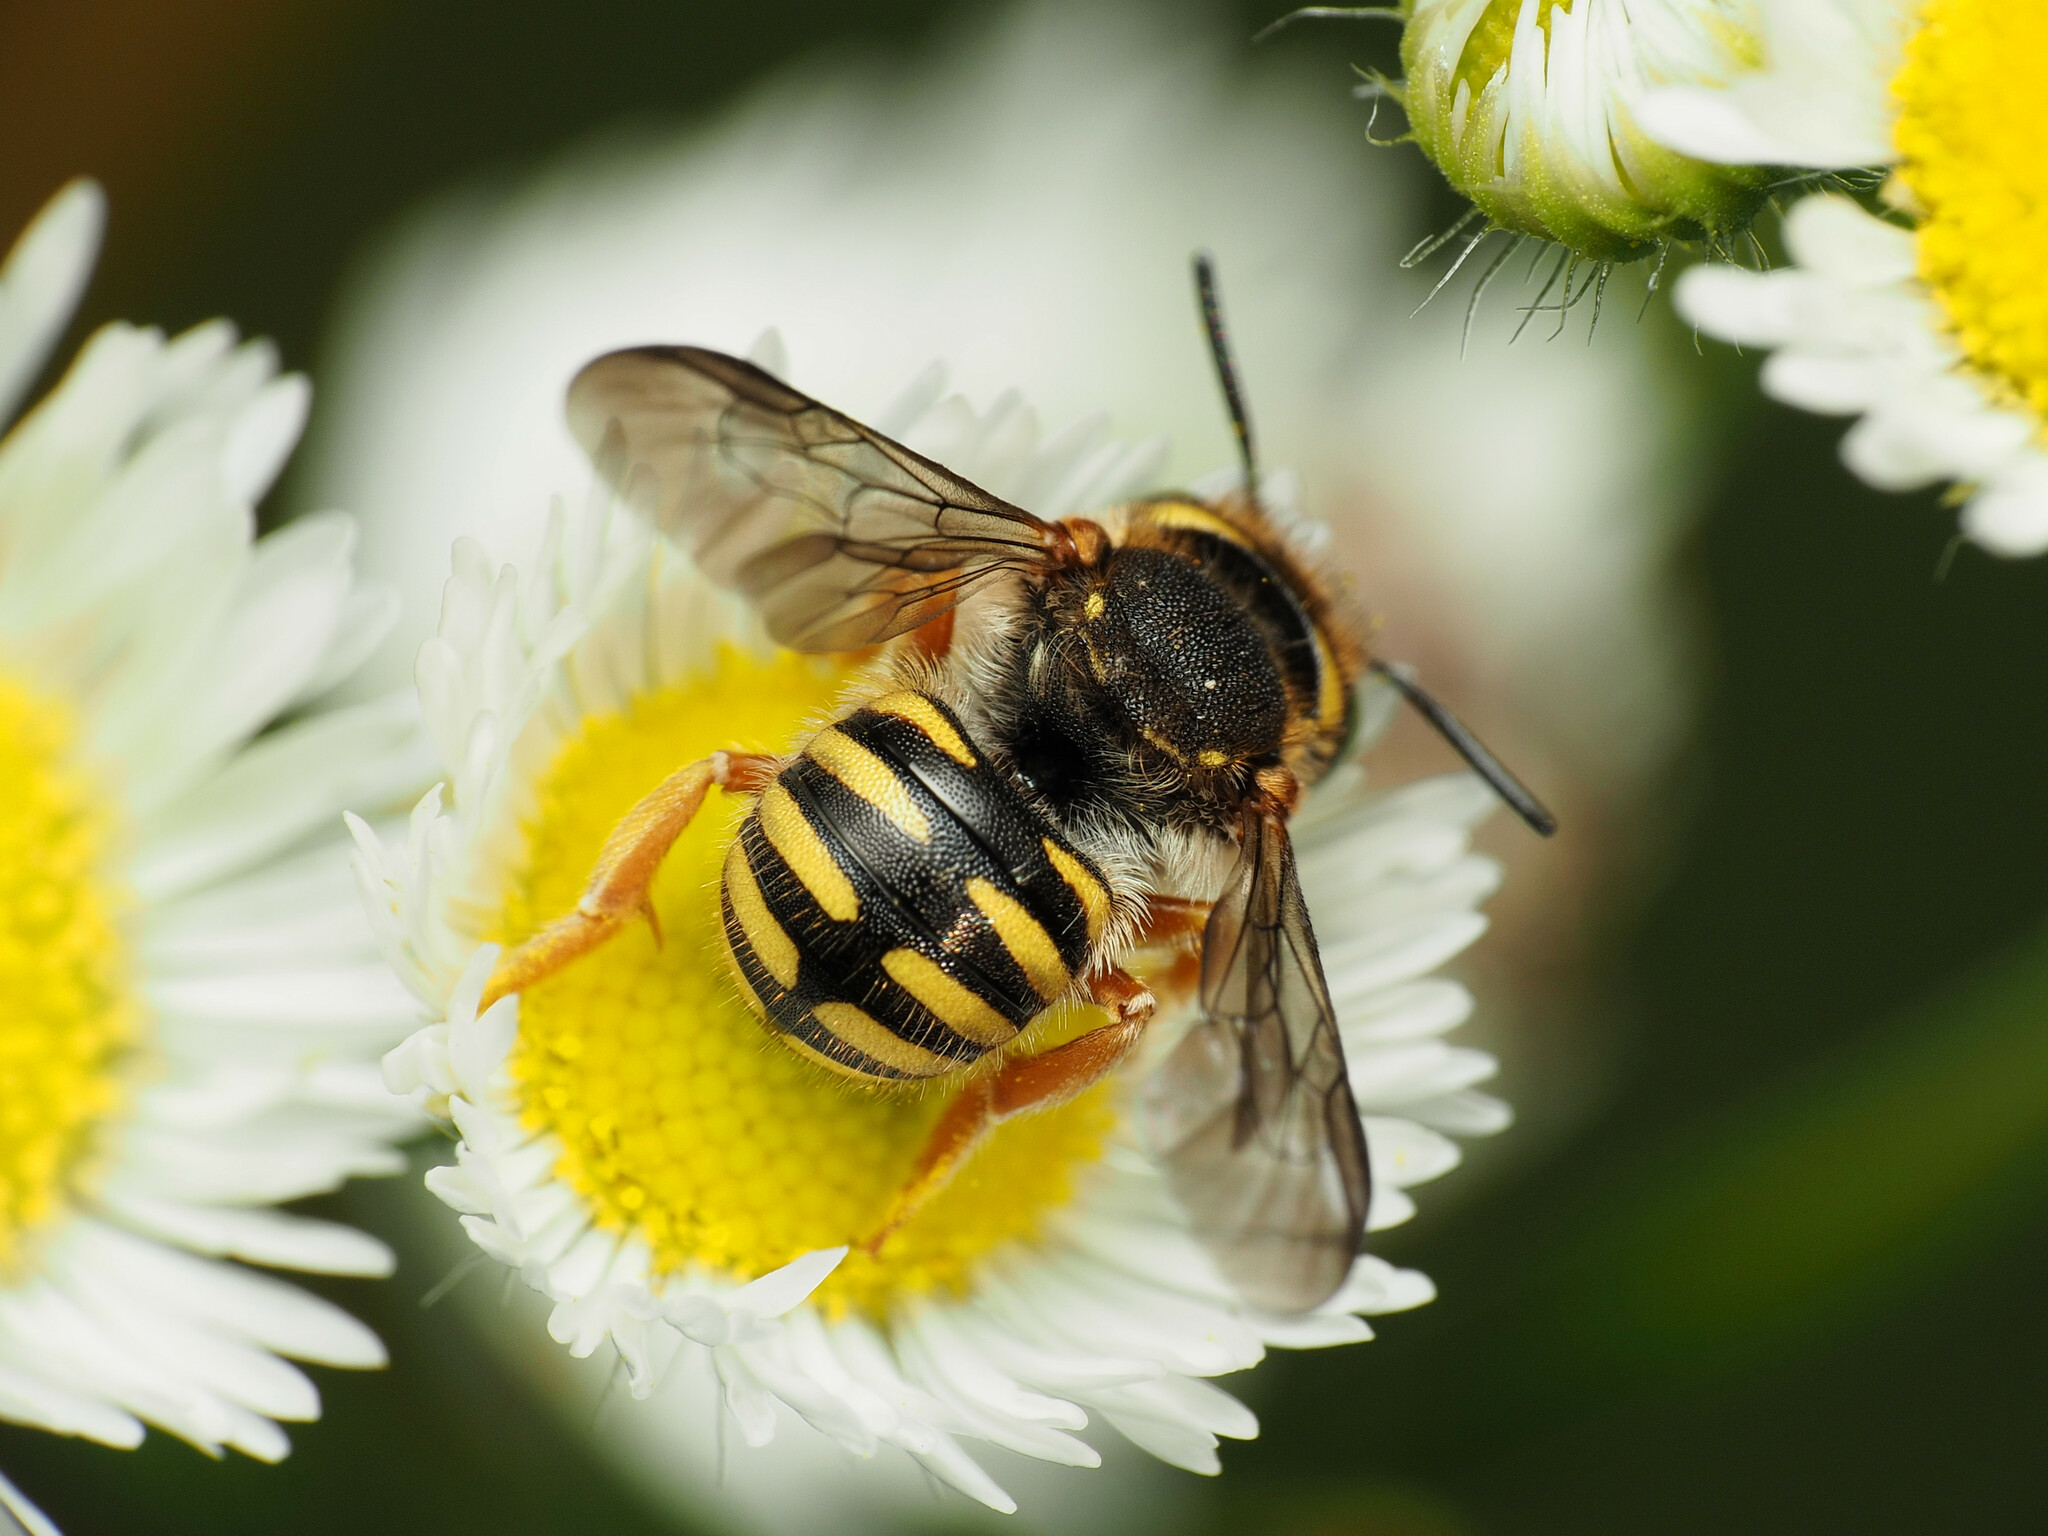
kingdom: Animalia
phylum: Arthropoda
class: Insecta
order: Hymenoptera
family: Megachilidae
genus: Anthidium
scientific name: Anthidium oblongatum
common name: Oblong wool carder bee
